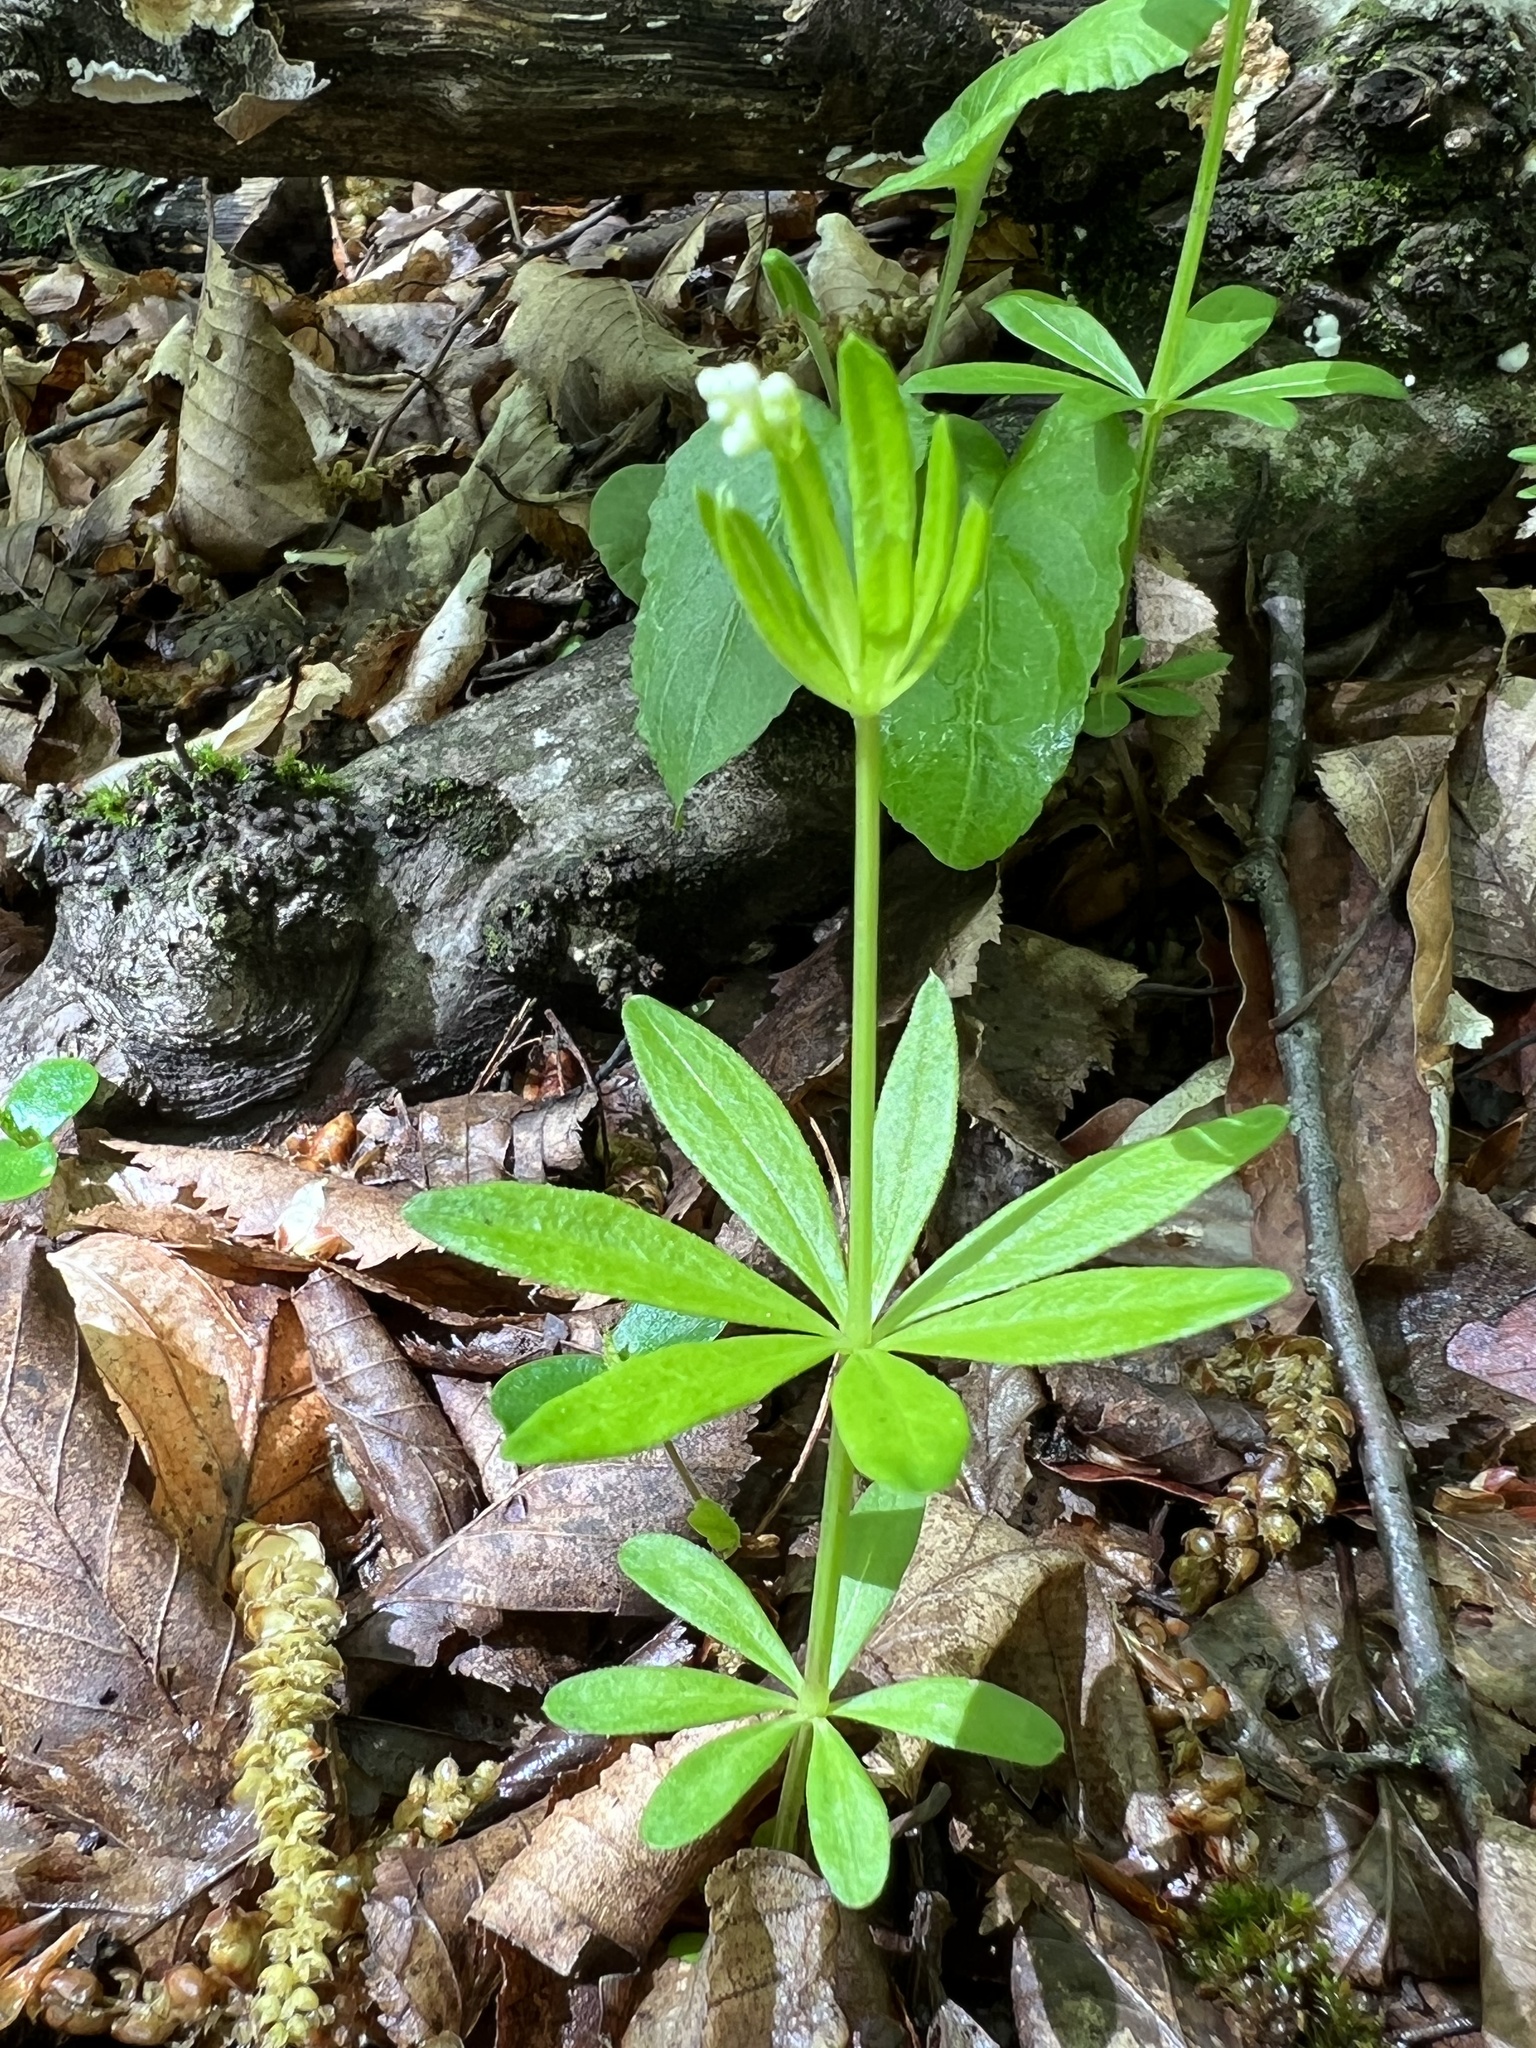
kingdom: Plantae
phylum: Tracheophyta
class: Magnoliopsida
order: Gentianales
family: Rubiaceae
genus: Galium
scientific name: Galium odoratum
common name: Sweet woodruff
